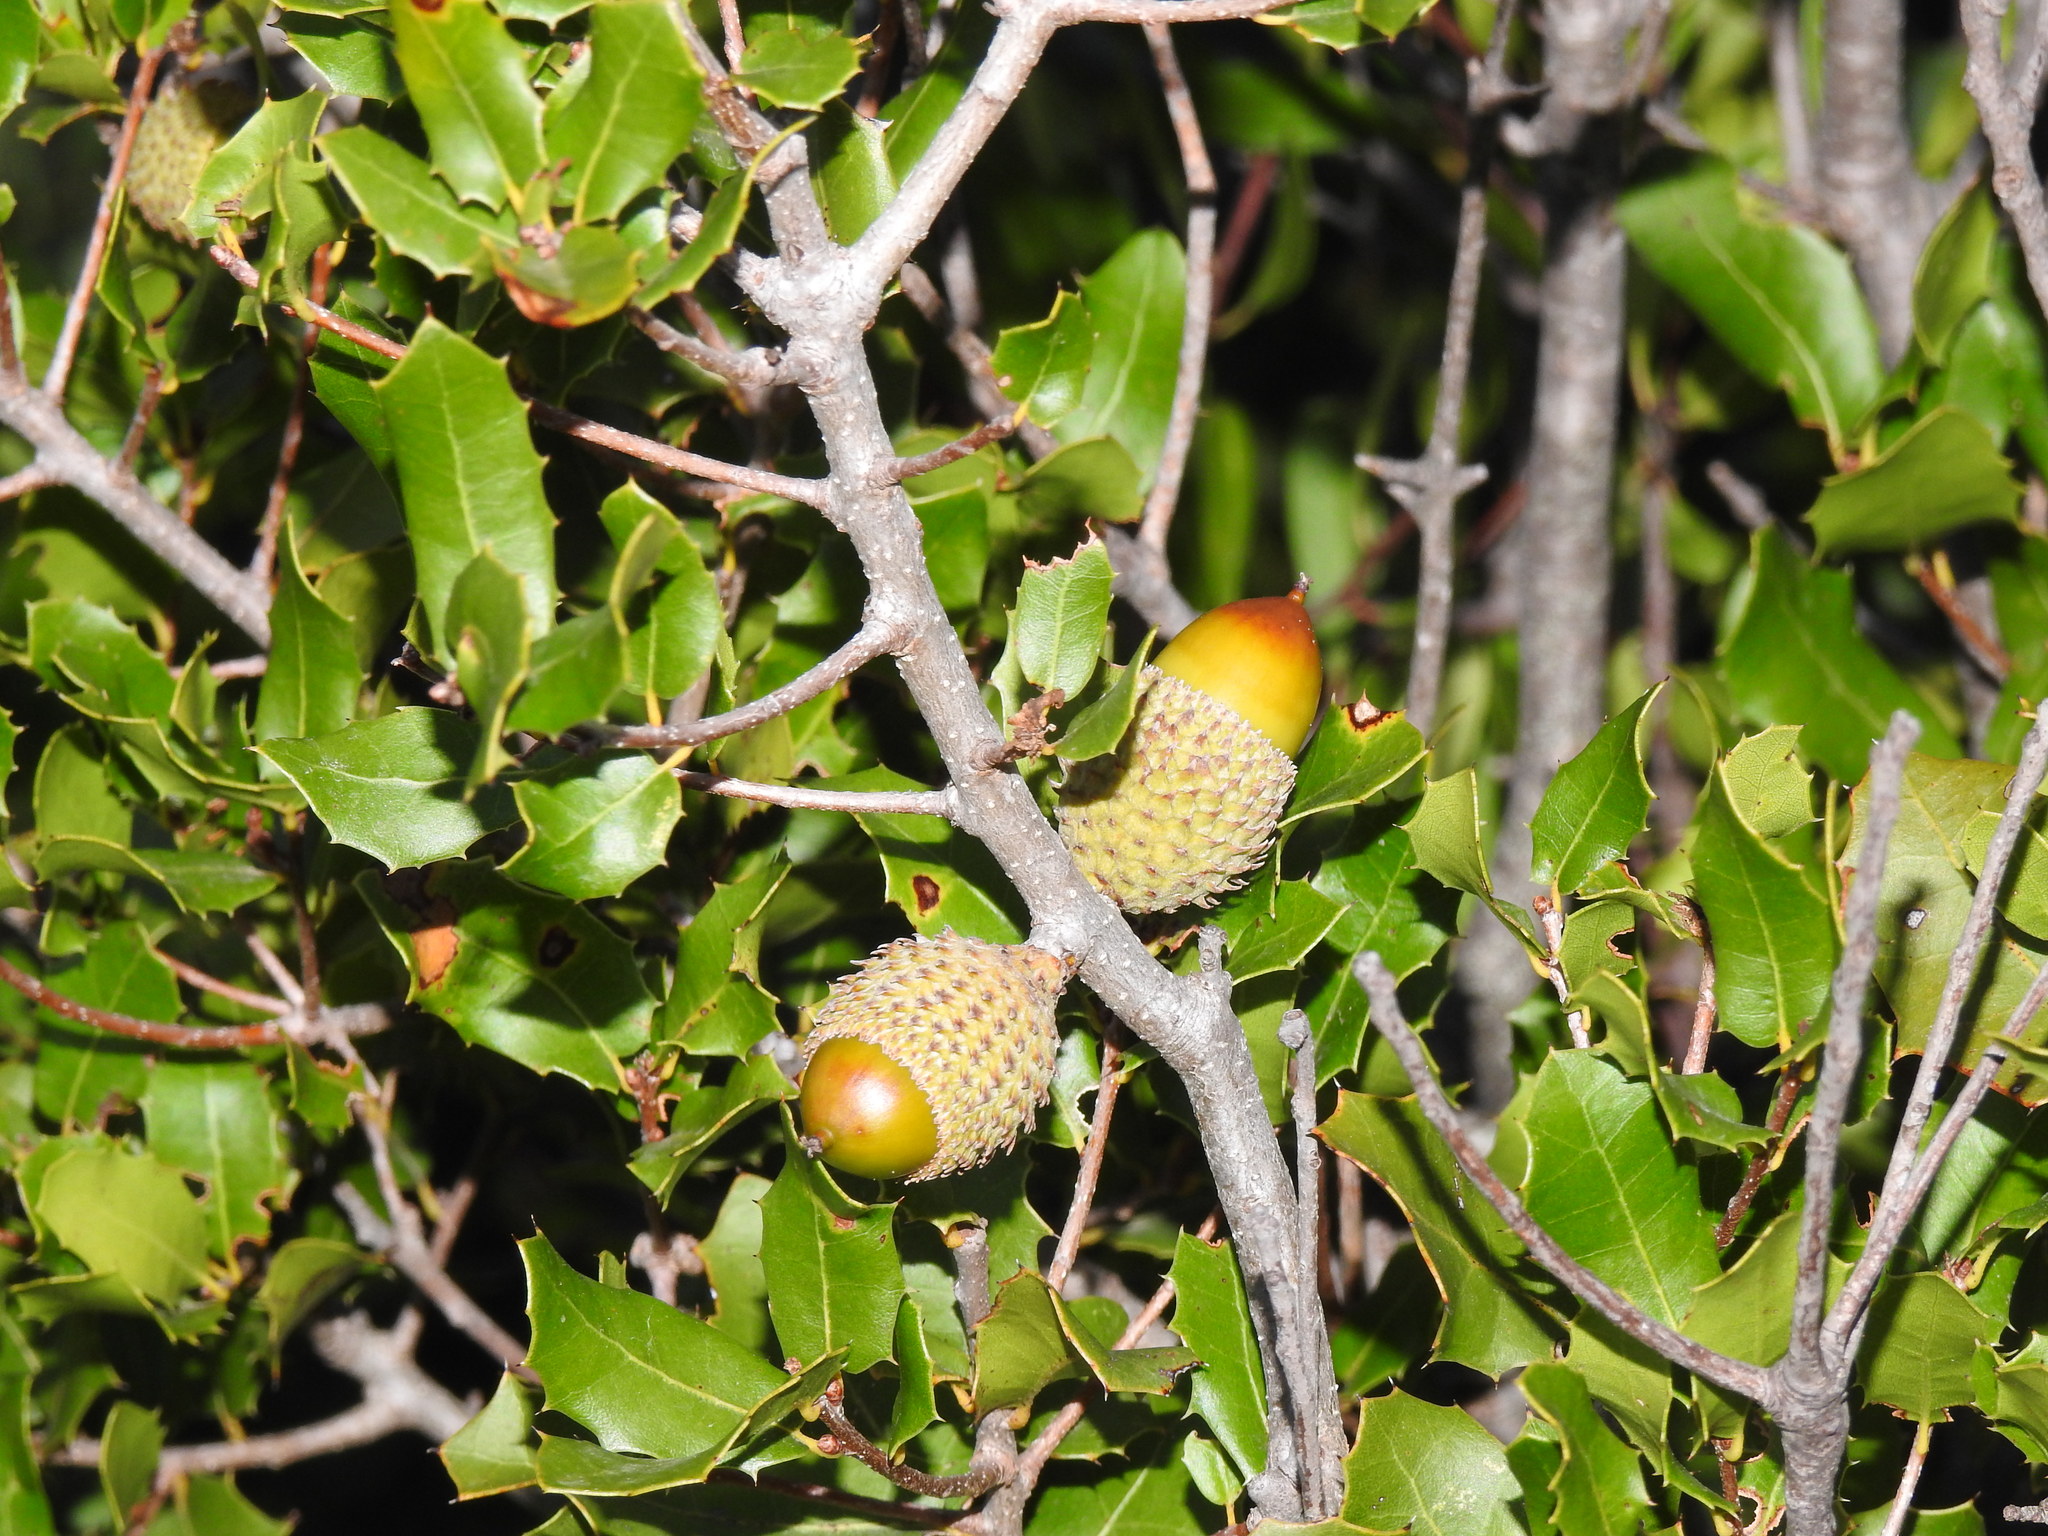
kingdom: Plantae
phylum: Tracheophyta
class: Magnoliopsida
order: Fagales
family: Fagaceae
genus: Quercus
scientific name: Quercus coccifera
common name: Kermes oak
